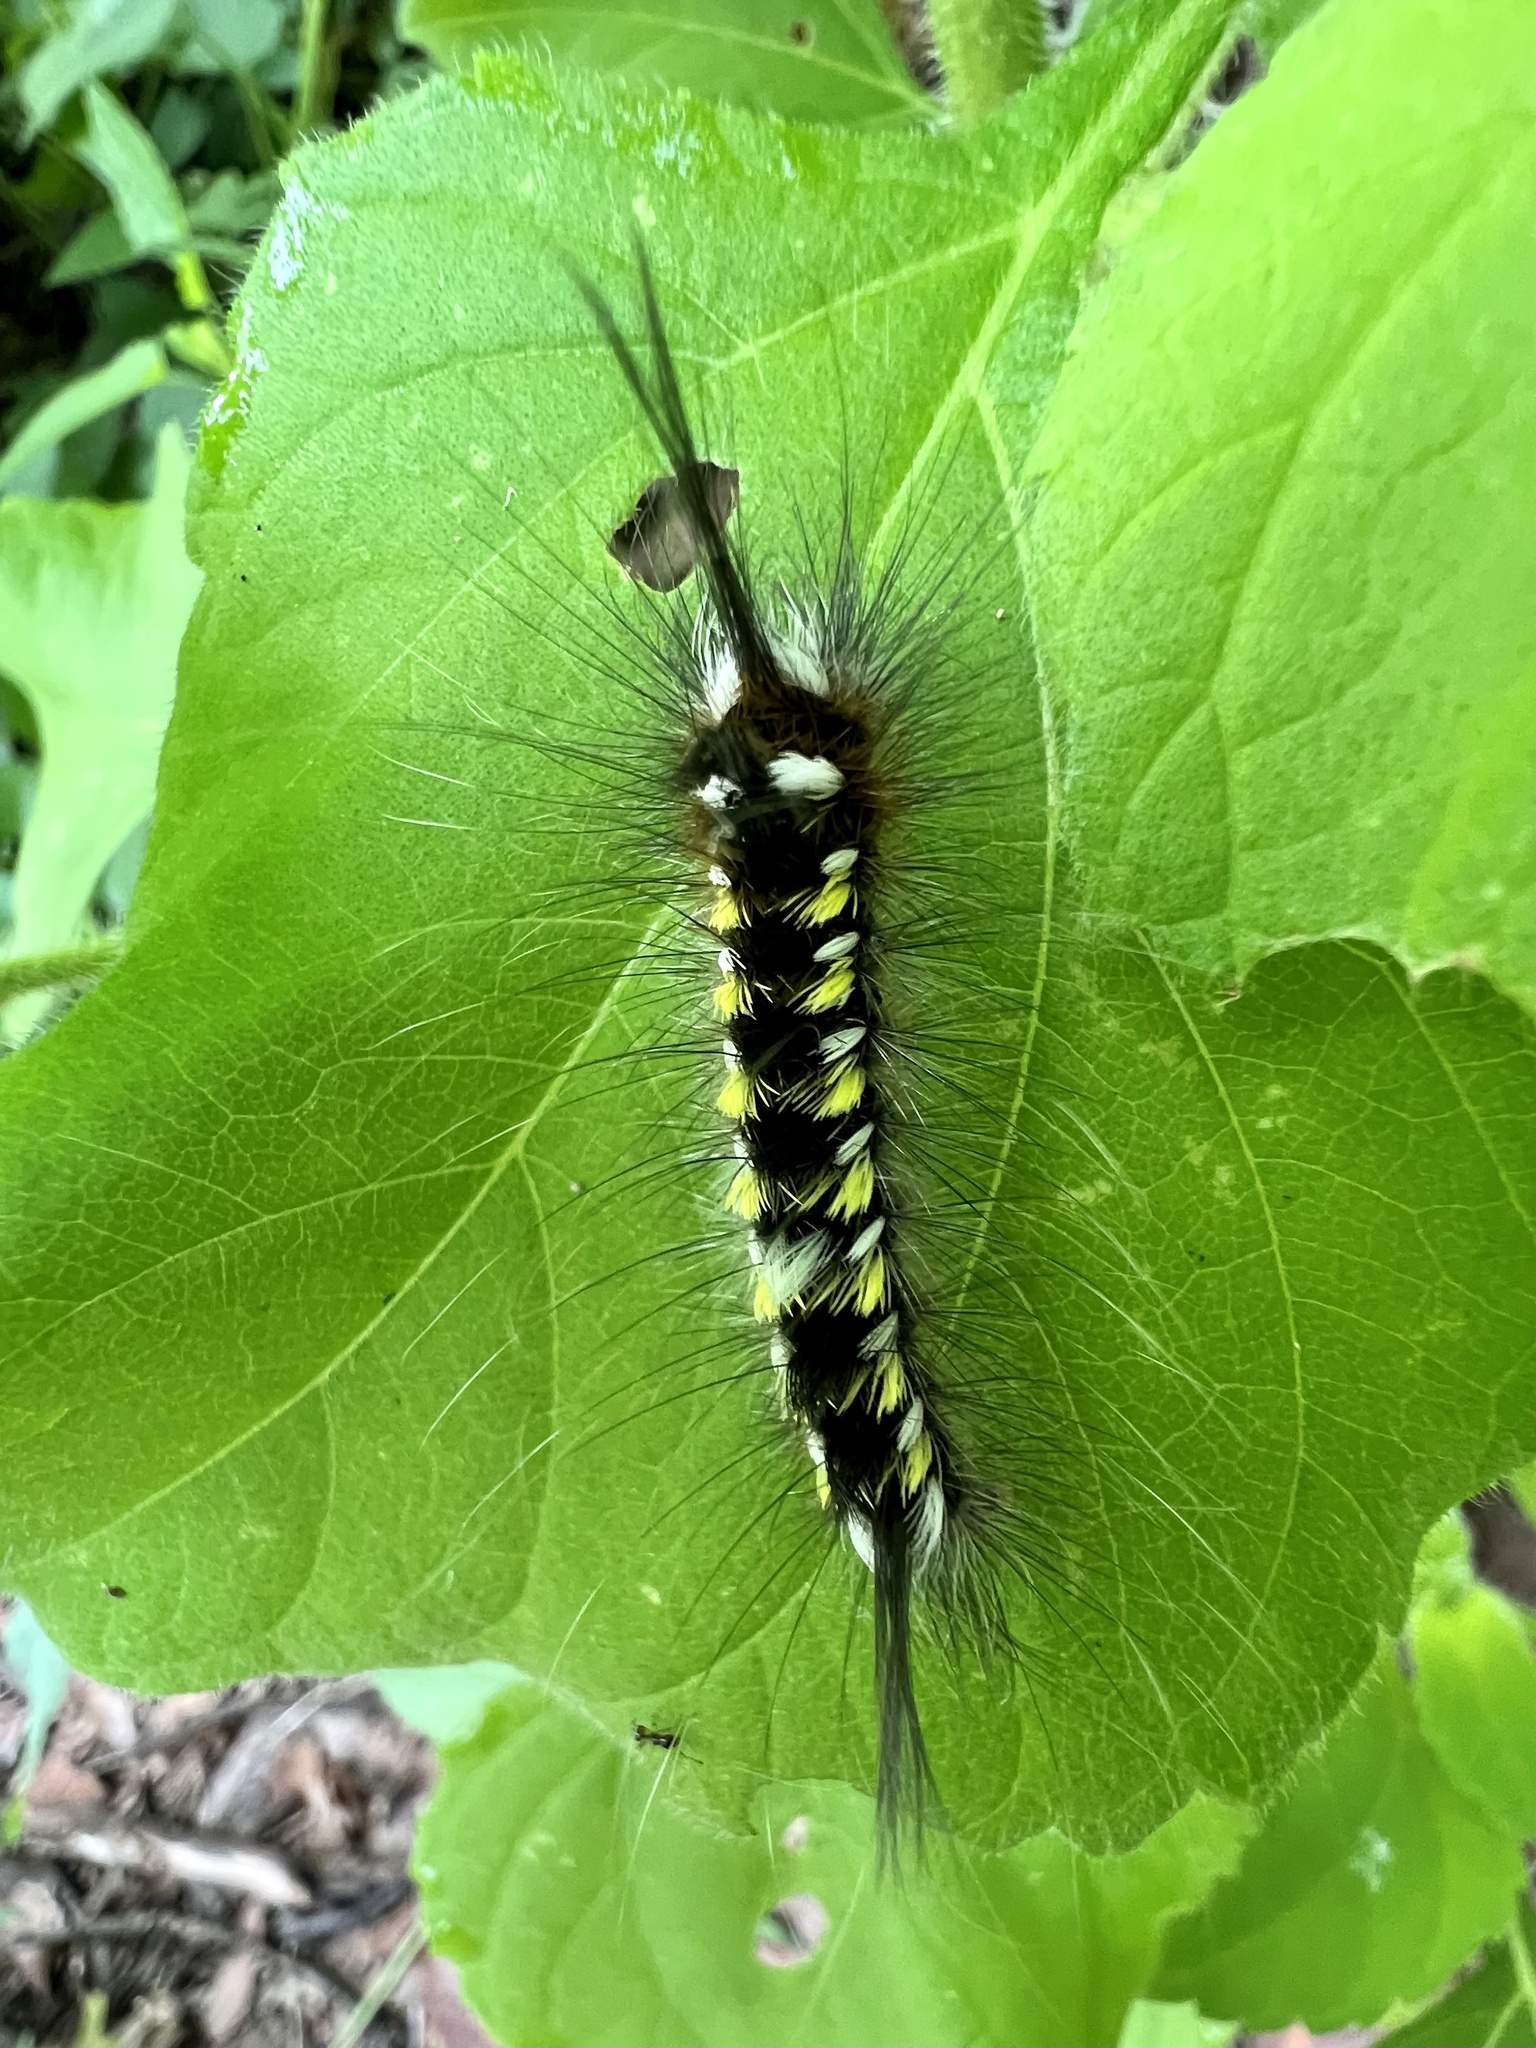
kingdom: Animalia
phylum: Arthropoda
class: Insecta
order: Lepidoptera
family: Apatelodidae
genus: Hygrochroa
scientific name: Hygrochroa Apatelodes pudefacta
